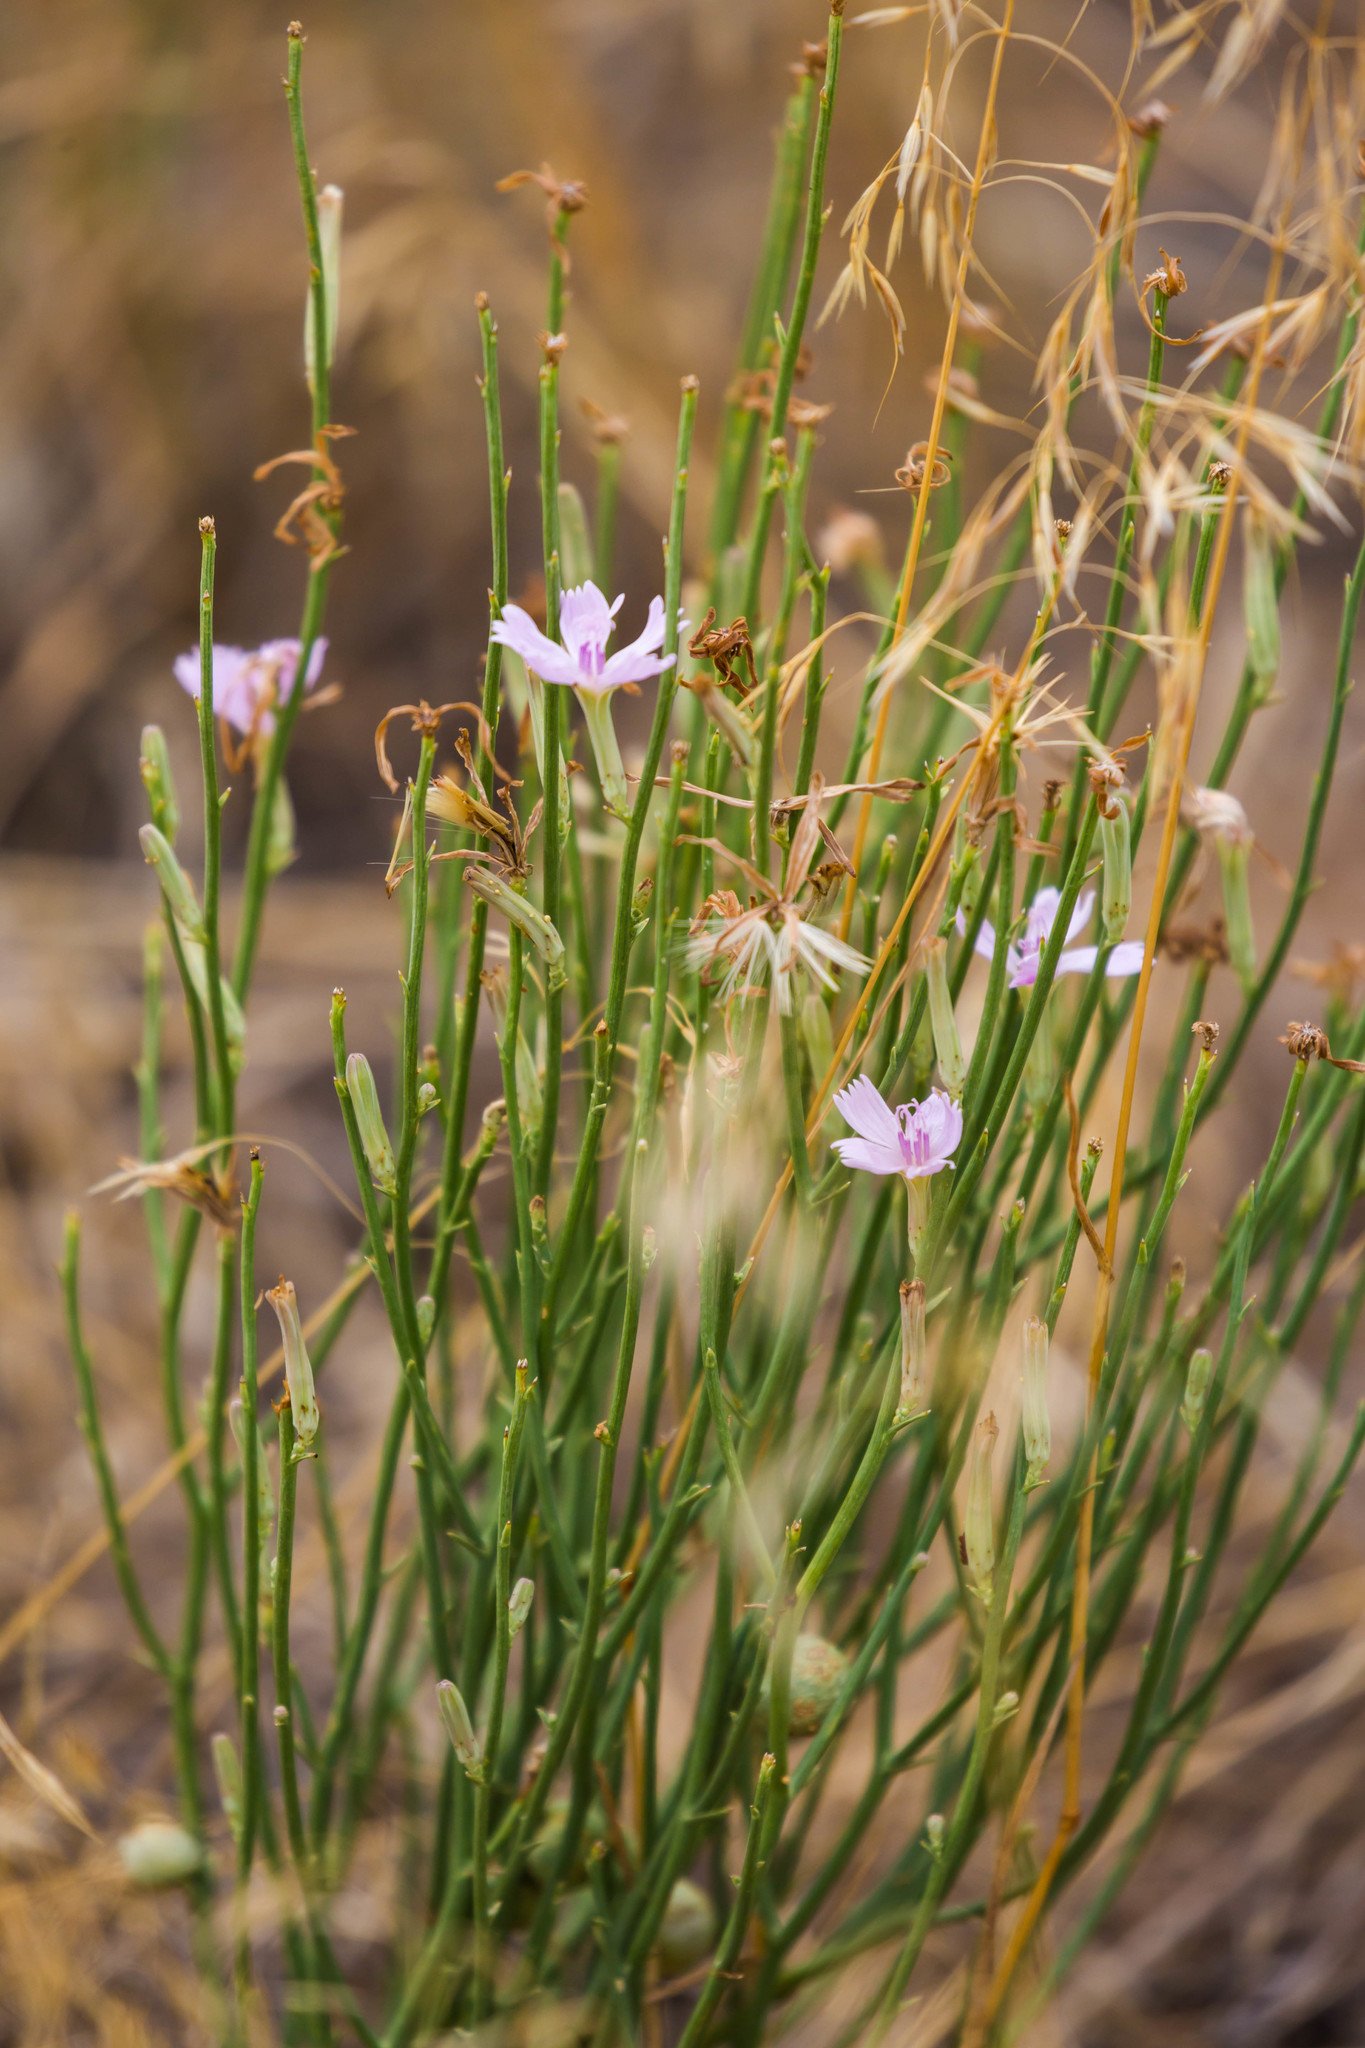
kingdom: Plantae
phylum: Tracheophyta
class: Magnoliopsida
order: Asterales
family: Asteraceae
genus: Lygodesmia
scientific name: Lygodesmia juncea
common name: Common skeletonweed
